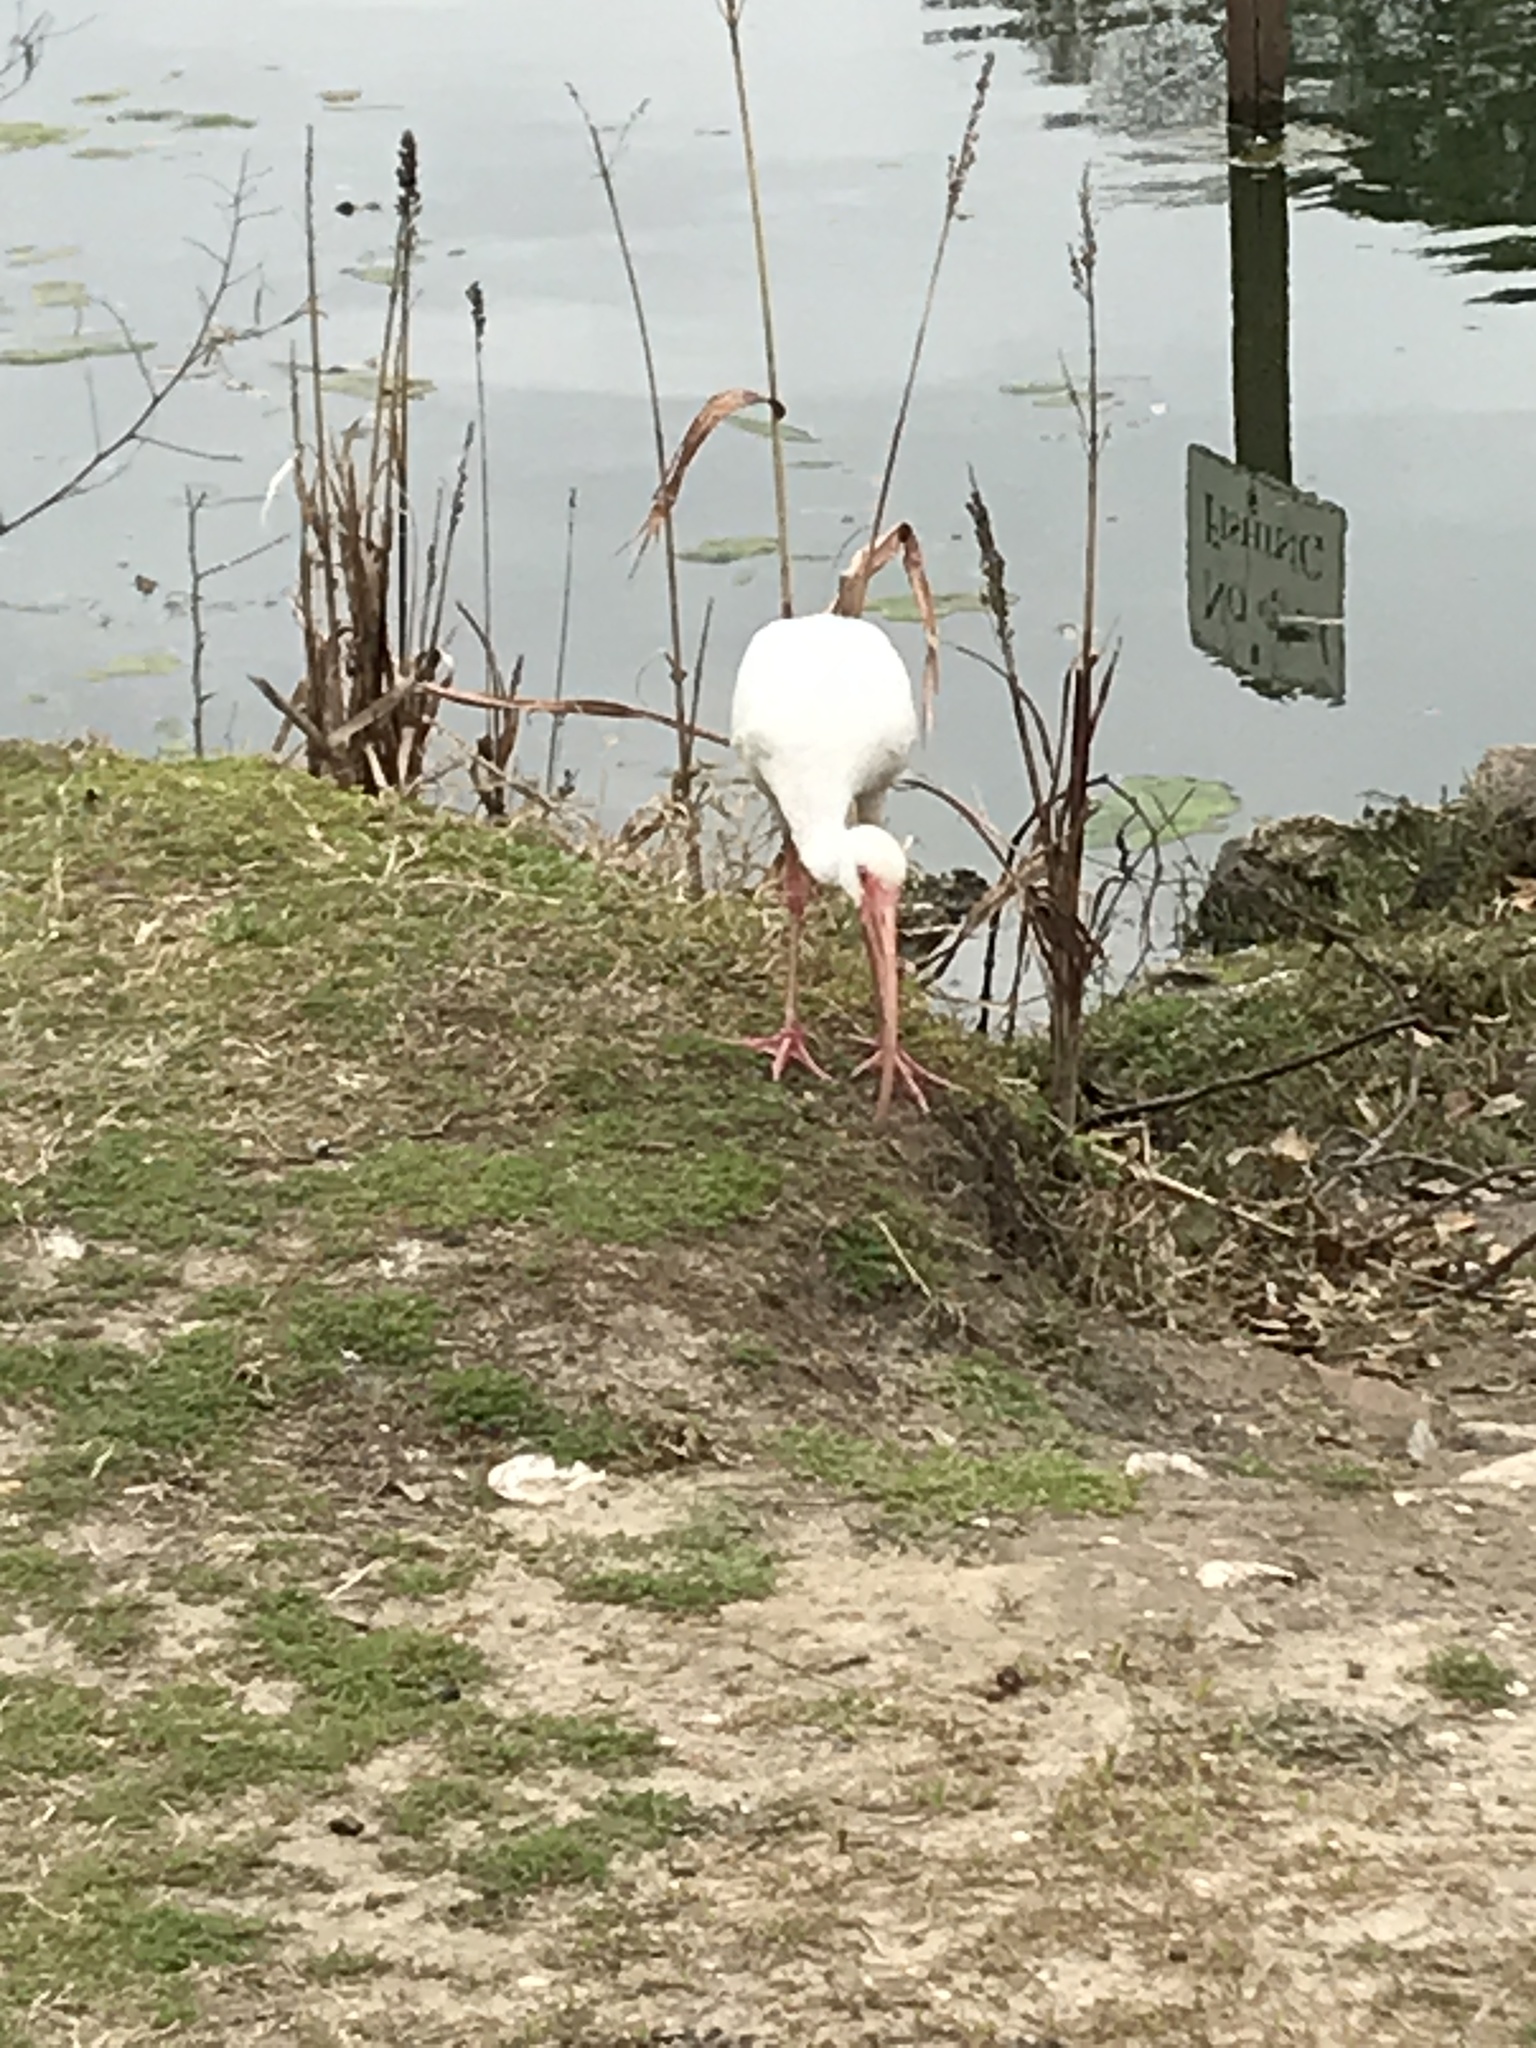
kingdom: Animalia
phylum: Chordata
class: Aves
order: Pelecaniformes
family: Threskiornithidae
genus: Eudocimus
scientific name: Eudocimus albus
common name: White ibis
